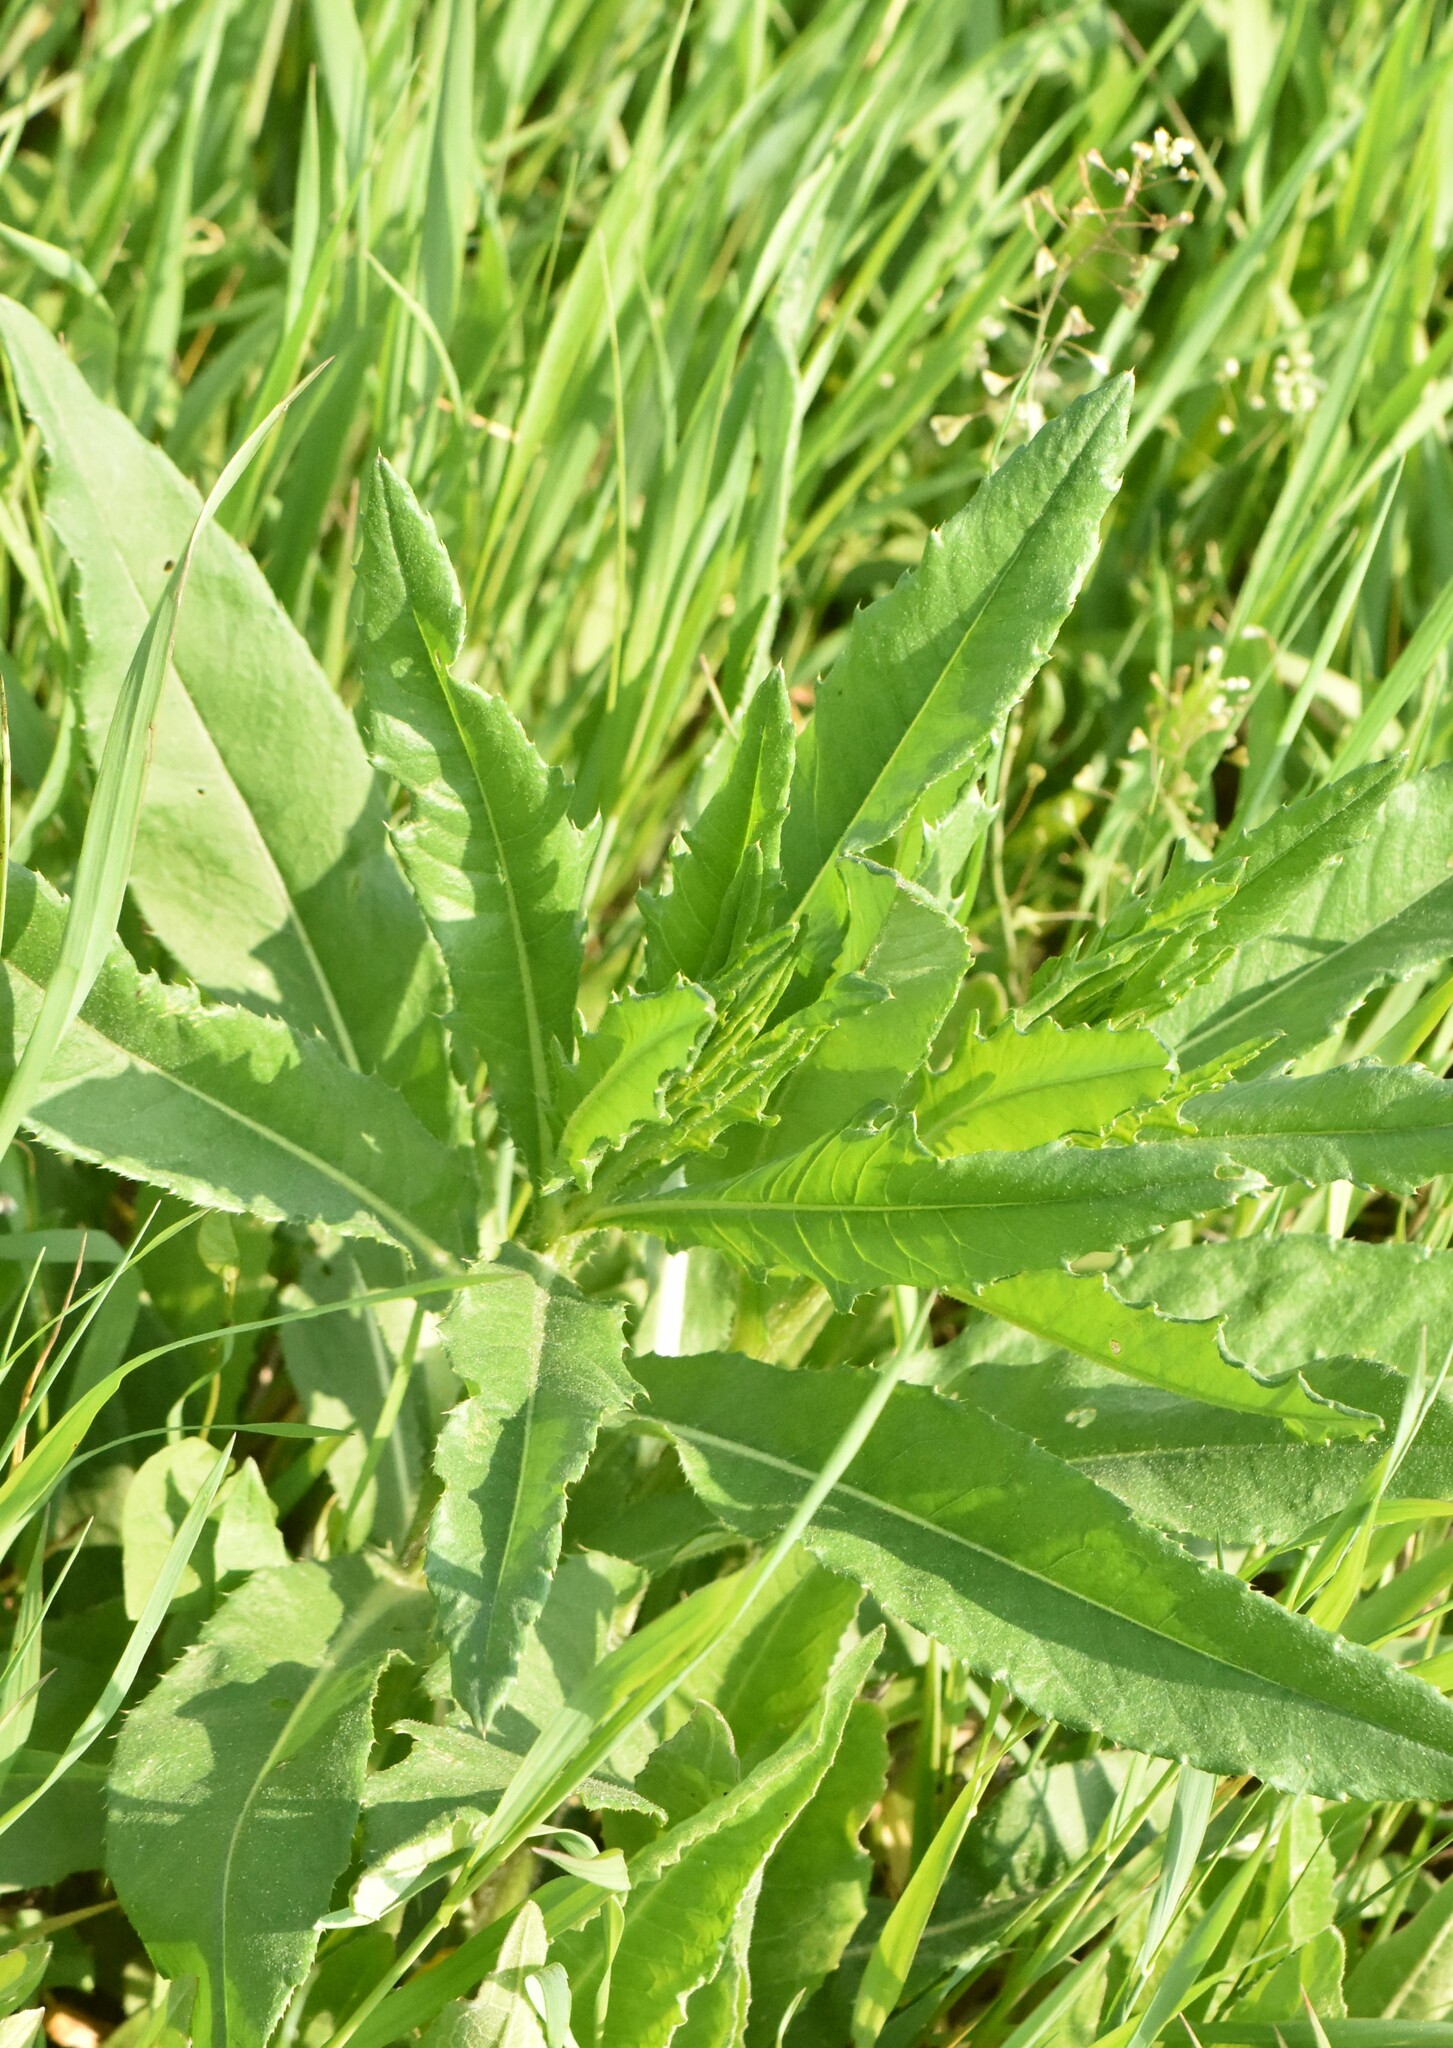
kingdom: Plantae
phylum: Tracheophyta
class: Magnoliopsida
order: Asterales
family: Asteraceae
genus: Cirsium
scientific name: Cirsium arvense
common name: Creeping thistle
